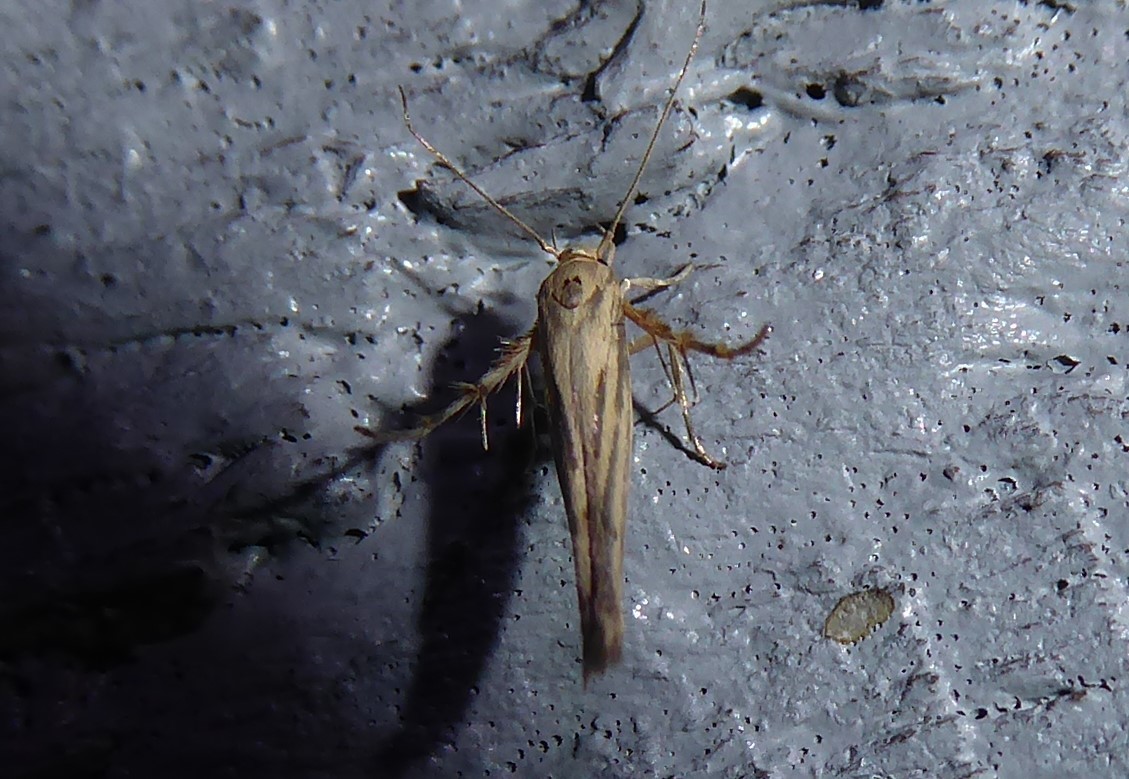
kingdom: Animalia
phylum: Arthropoda
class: Insecta
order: Lepidoptera
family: Stathmopodidae
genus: Stathmopoda
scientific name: Stathmopoda plumbiflua
